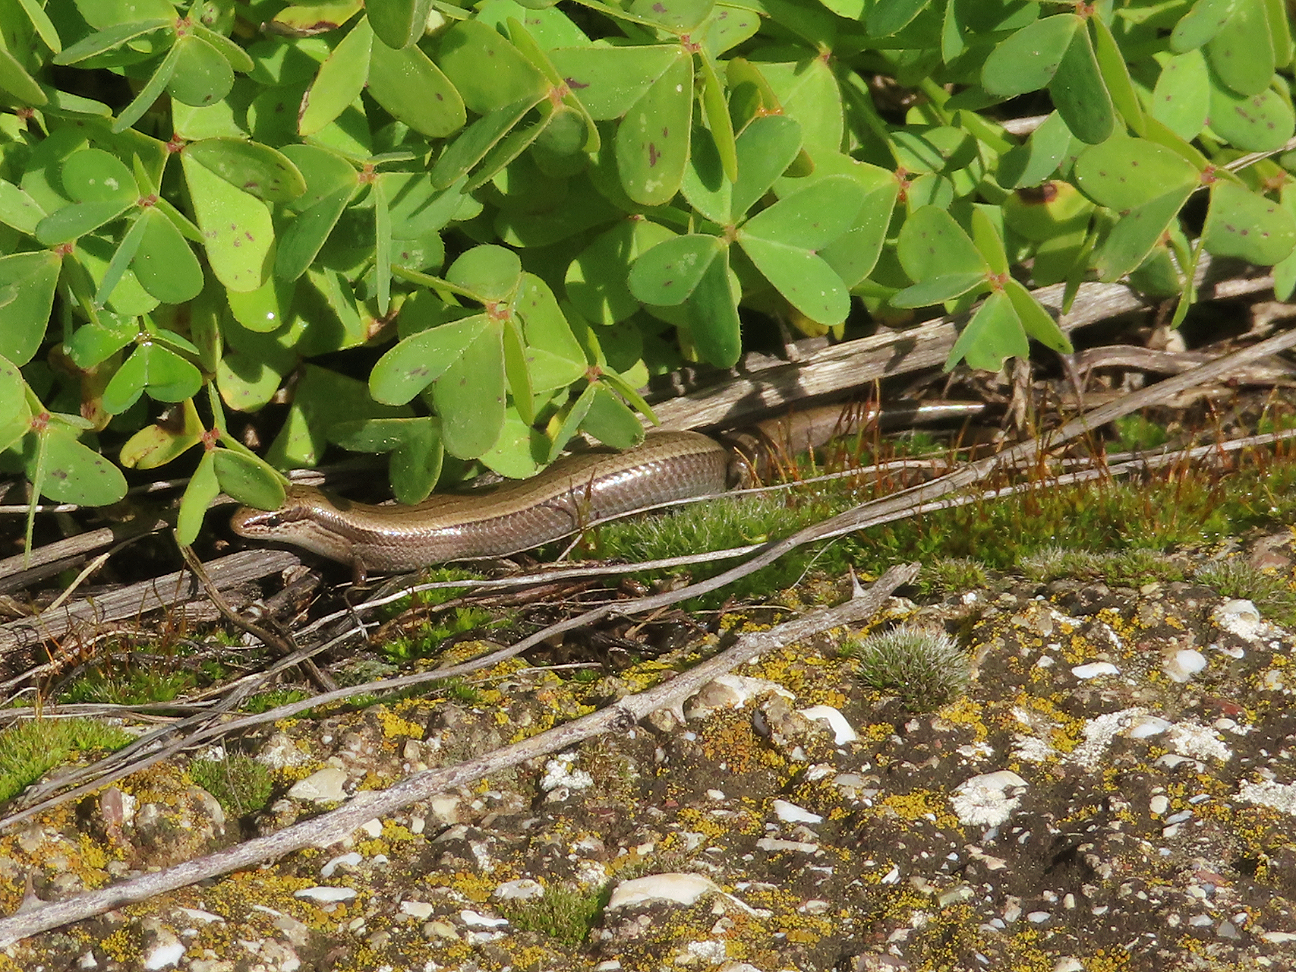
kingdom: Animalia
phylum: Chordata
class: Squamata
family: Scincidae
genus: Ablepharus
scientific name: Ablepharus kitaibelii
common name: Juniper skink
